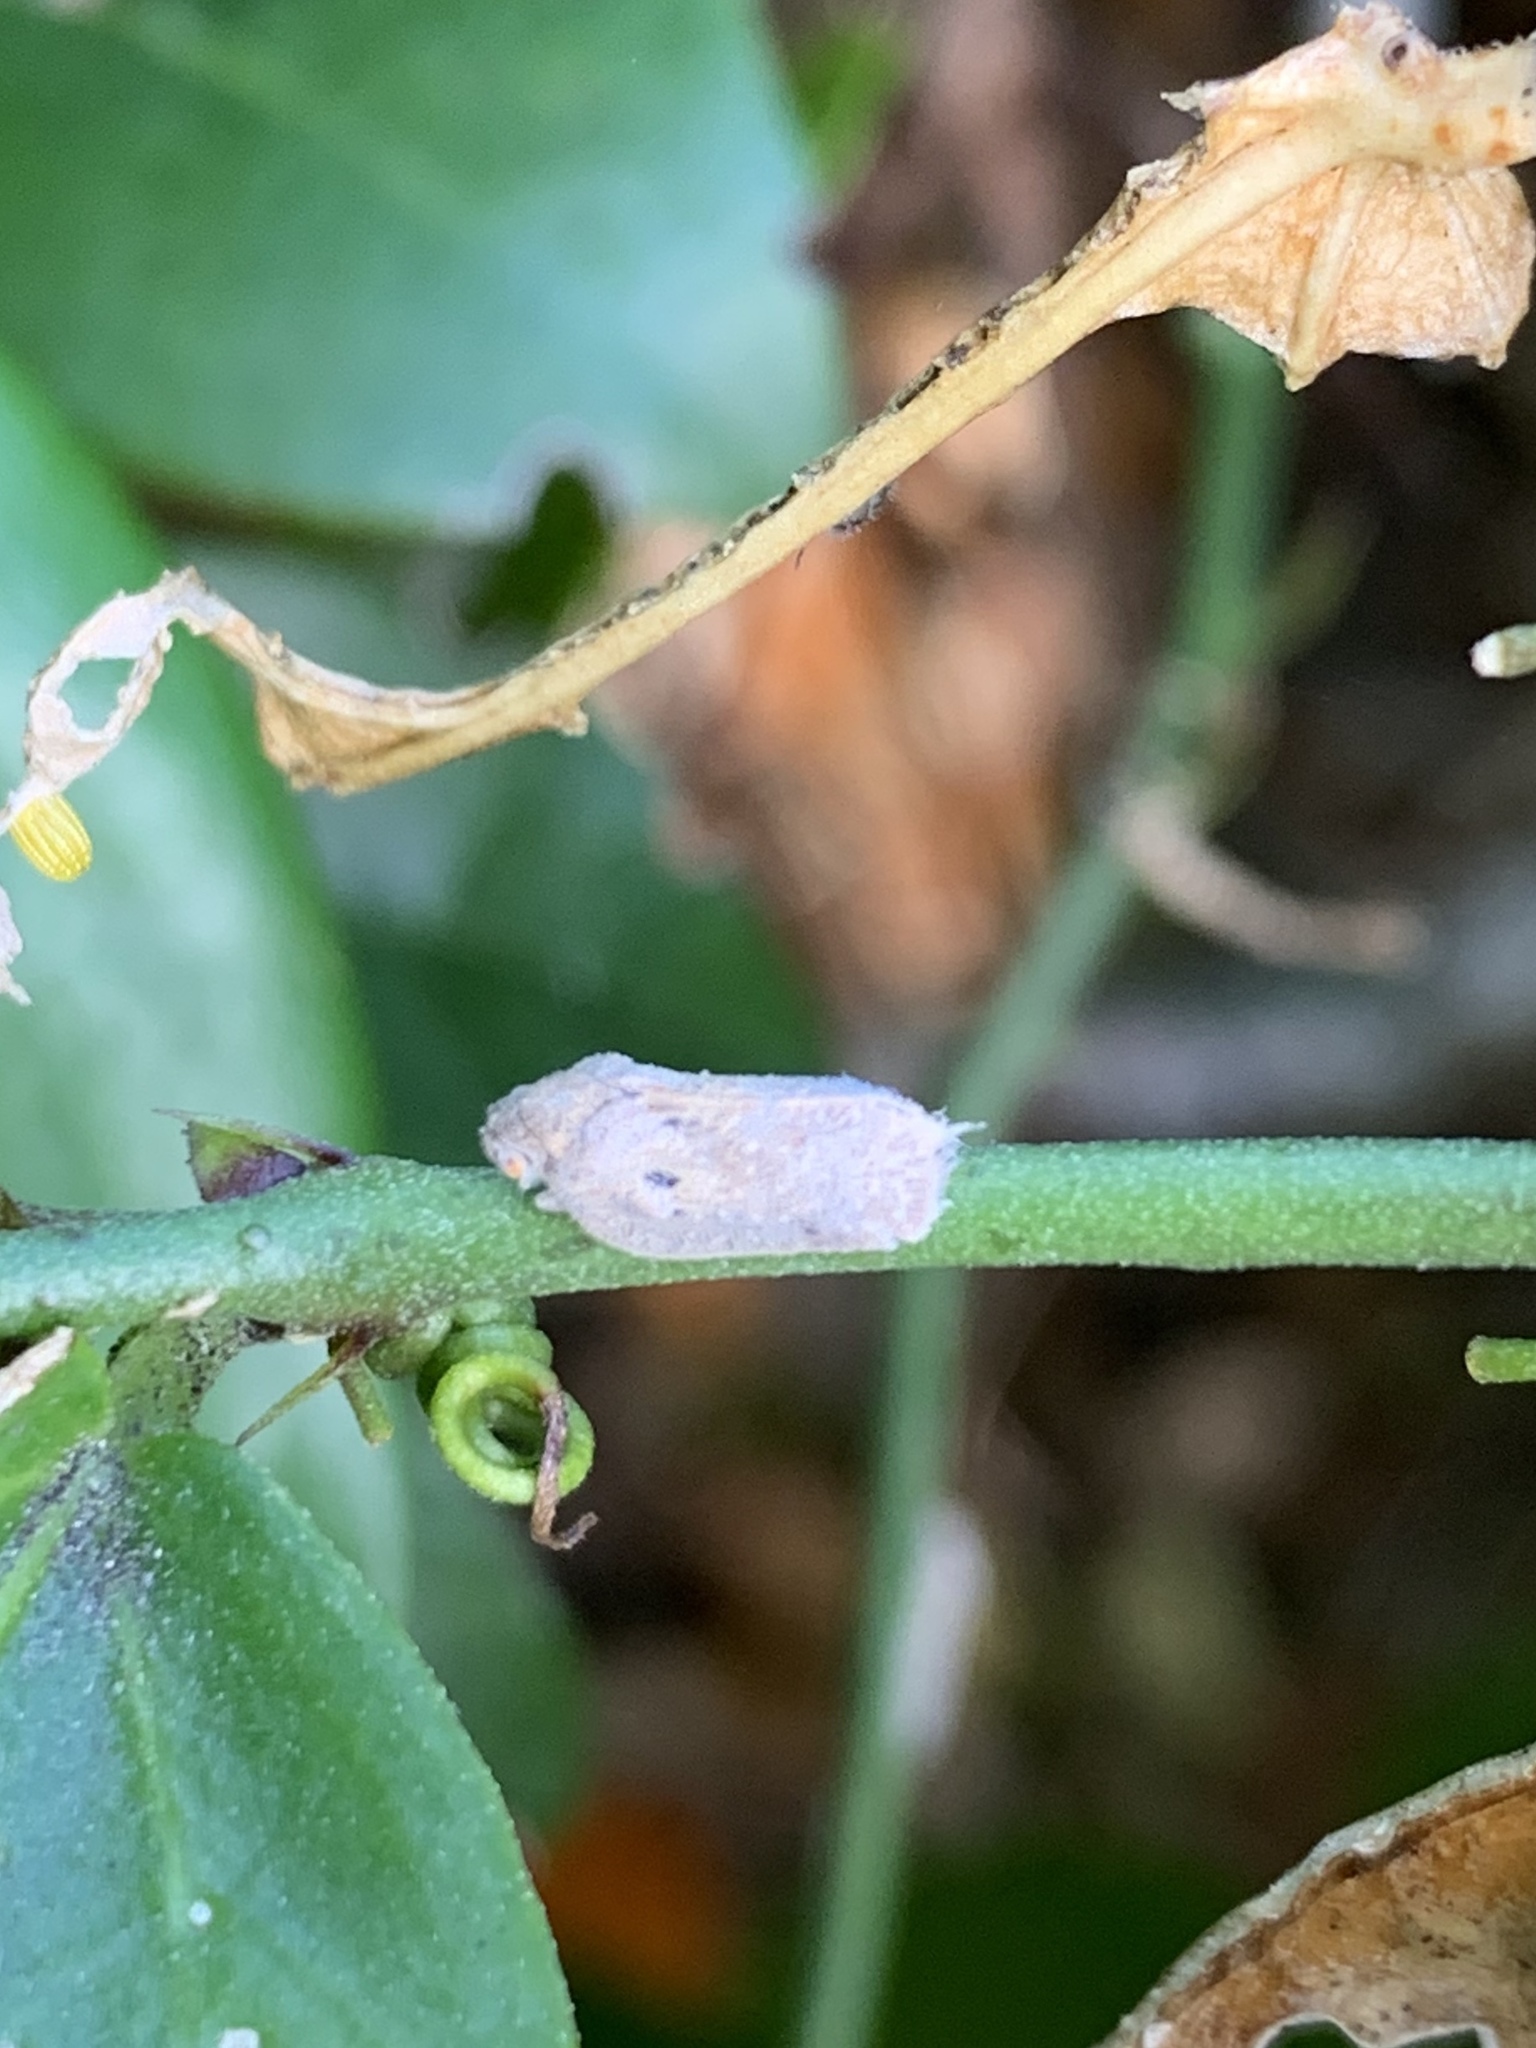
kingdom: Animalia
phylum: Arthropoda
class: Insecta
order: Hemiptera
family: Flatidae
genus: Melormenis
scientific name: Melormenis basalis
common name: Puerto rican planthopper
